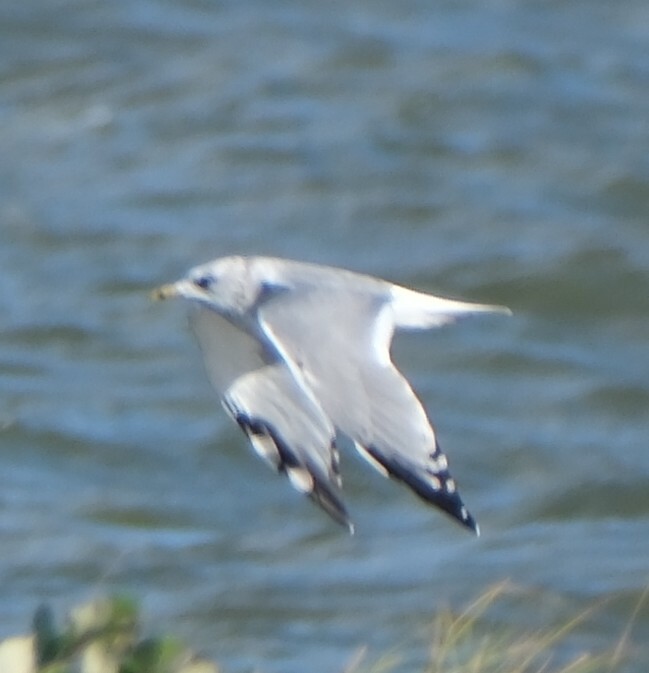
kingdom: Animalia
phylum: Chordata
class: Aves
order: Charadriiformes
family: Laridae
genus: Larus
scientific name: Larus canus
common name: Mew gull
